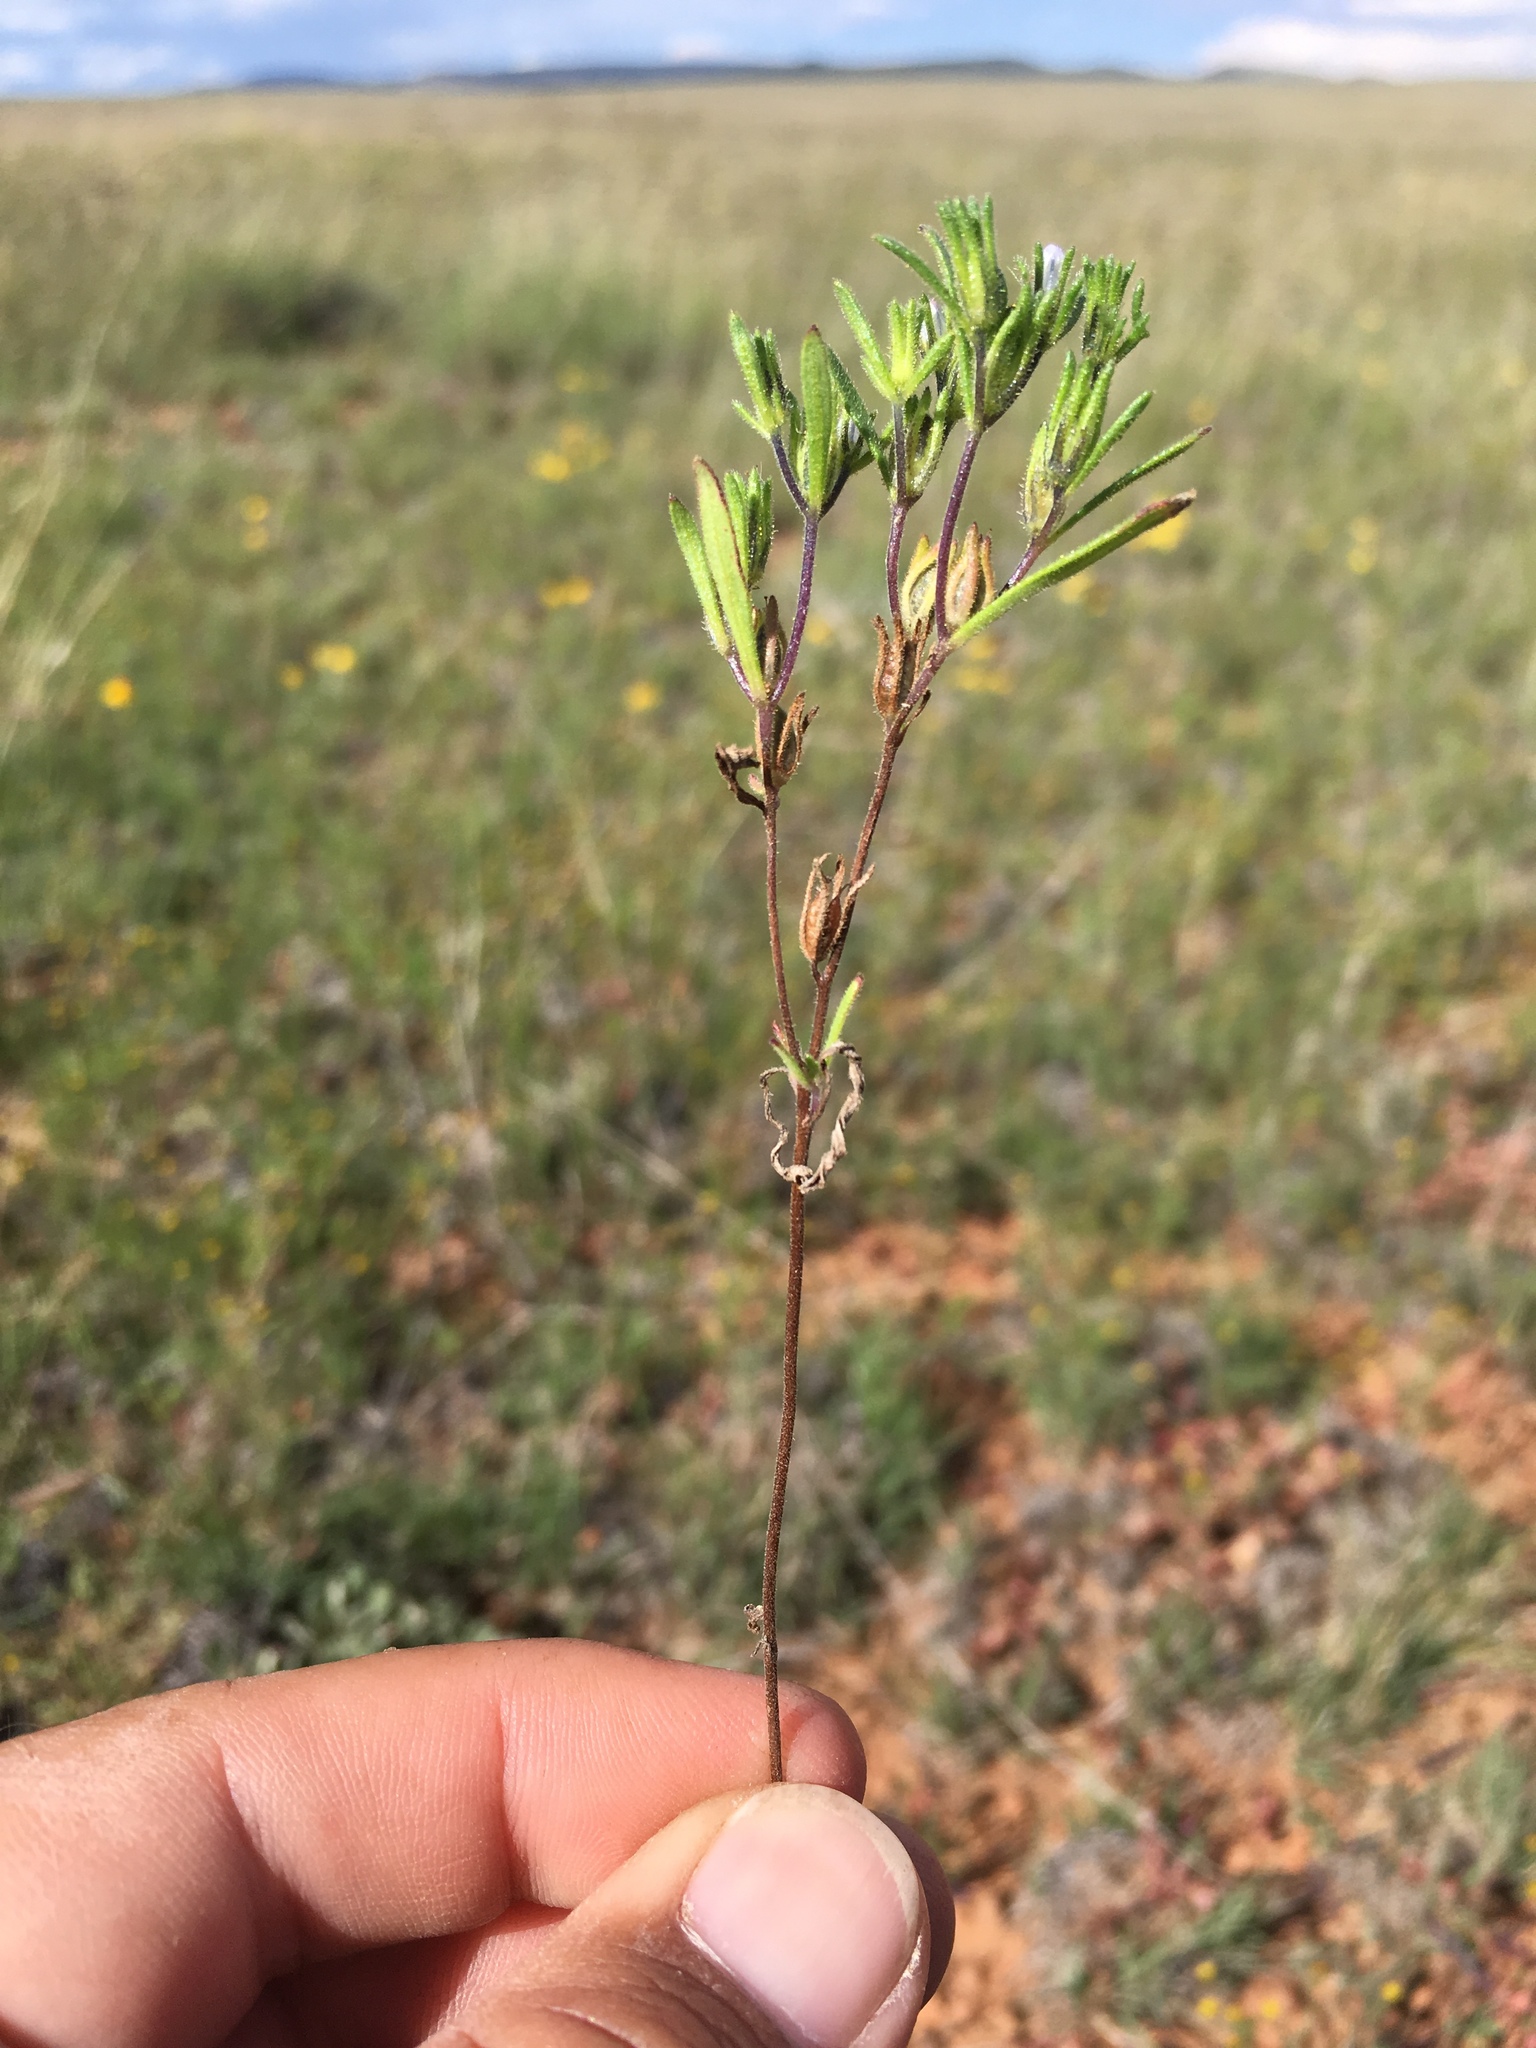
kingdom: Plantae
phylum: Tracheophyta
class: Magnoliopsida
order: Boraginales
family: Namaceae
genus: Nama
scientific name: Nama dichotoma
